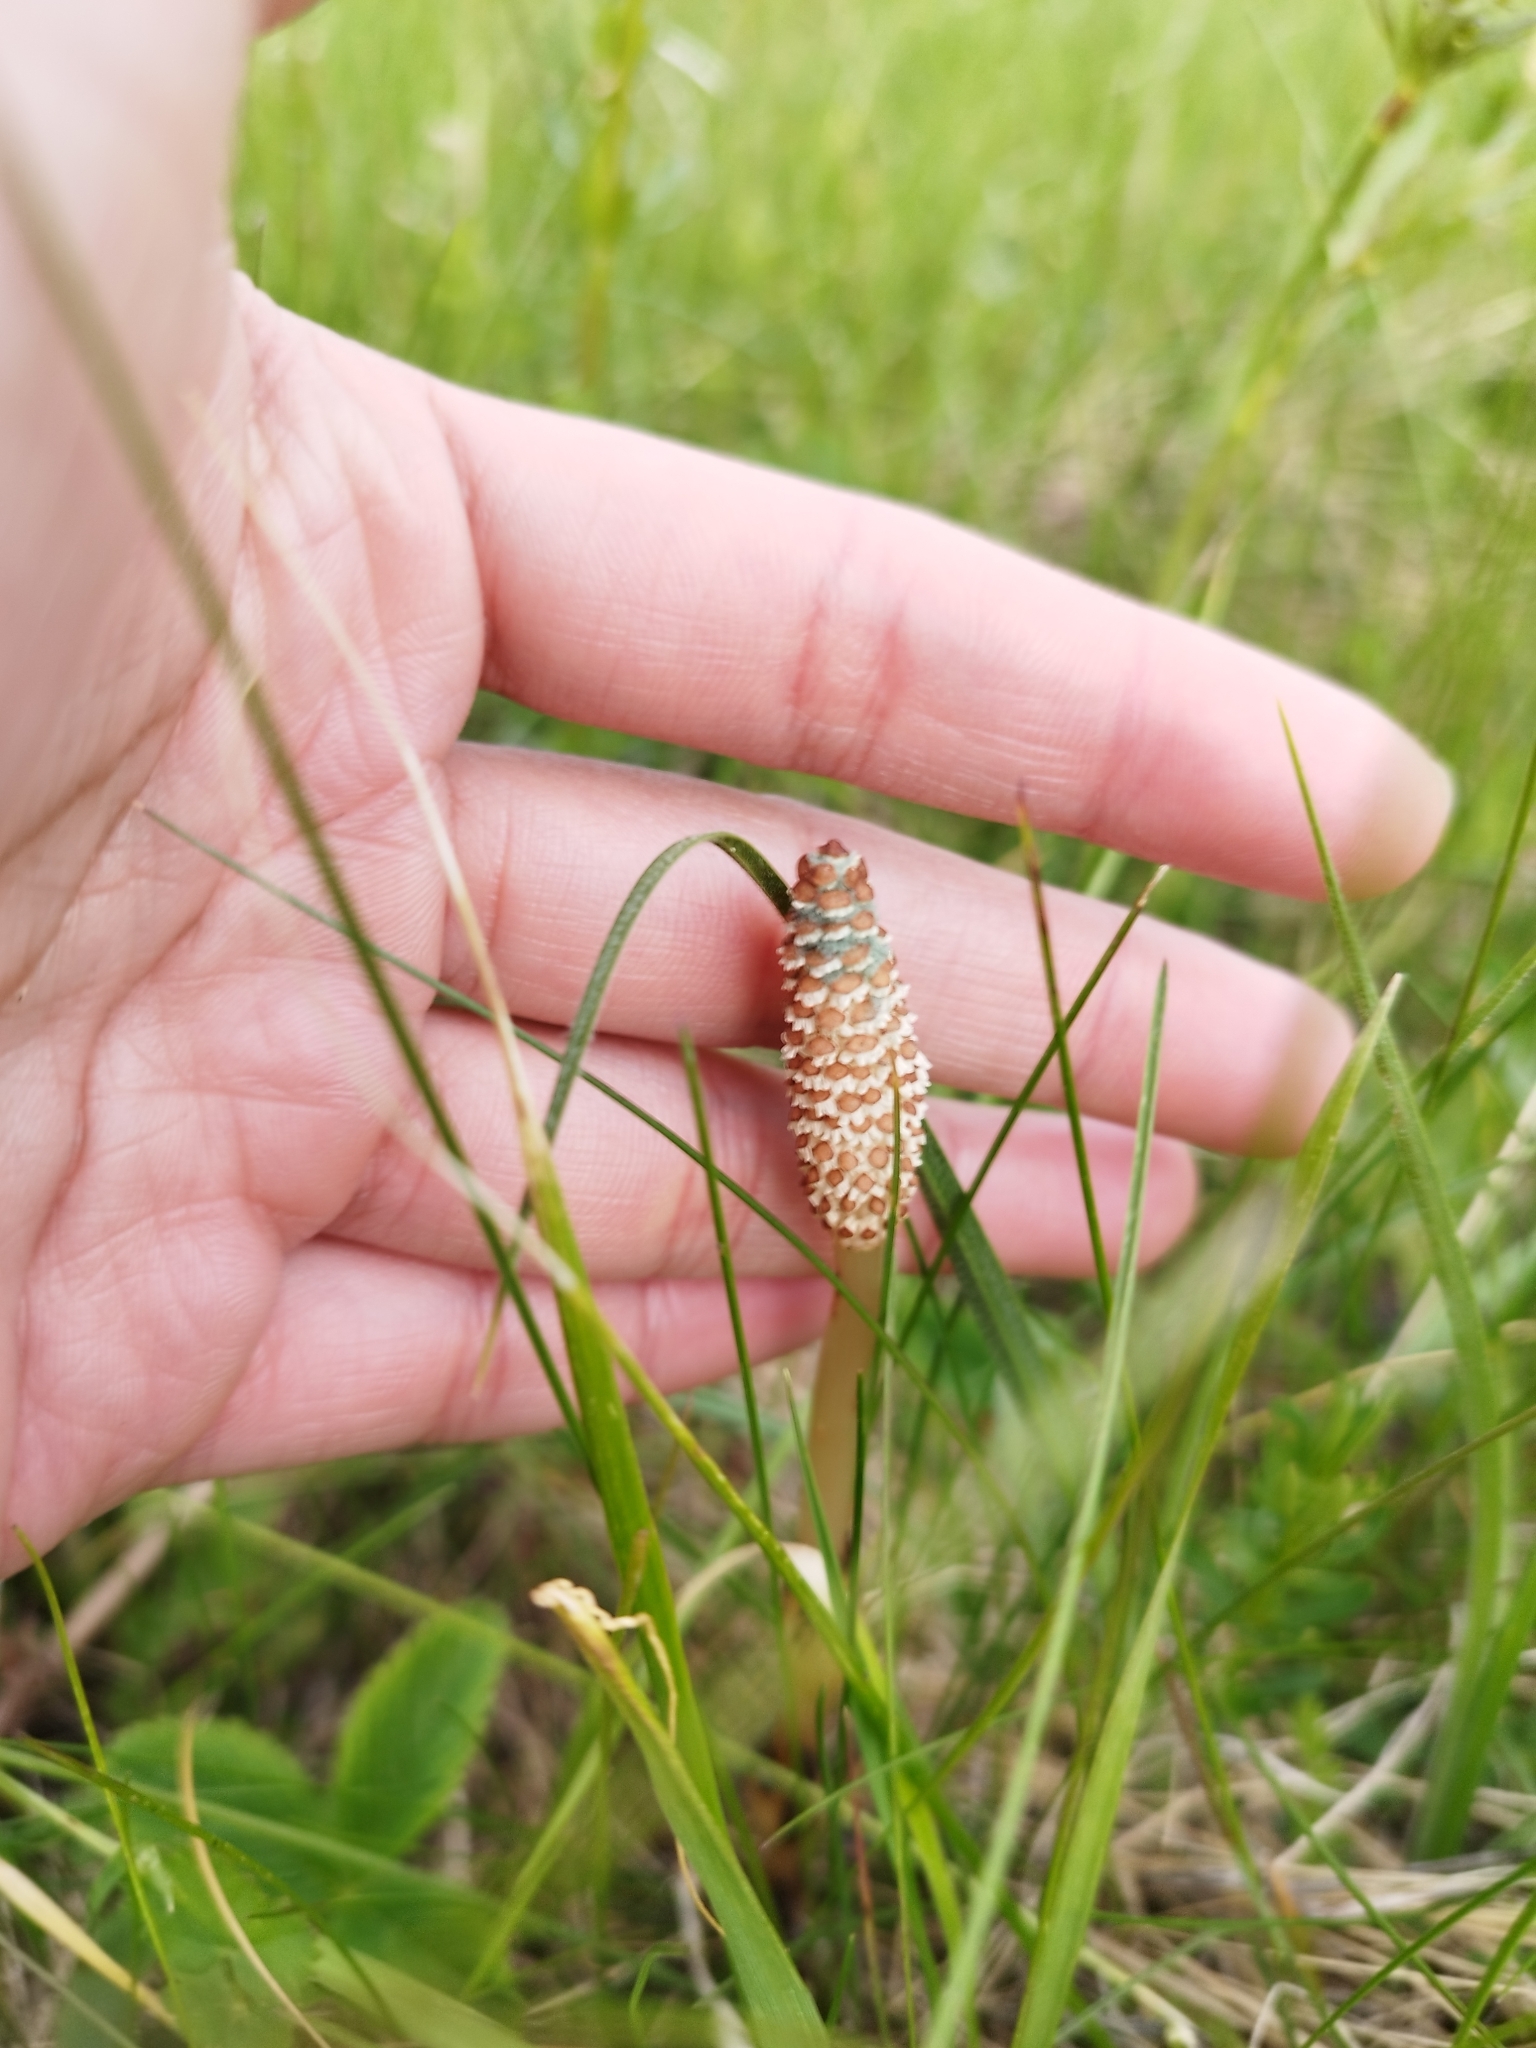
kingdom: Plantae
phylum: Tracheophyta
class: Polypodiopsida
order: Equisetales
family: Equisetaceae
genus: Equisetum
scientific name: Equisetum arvense
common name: Field horsetail
